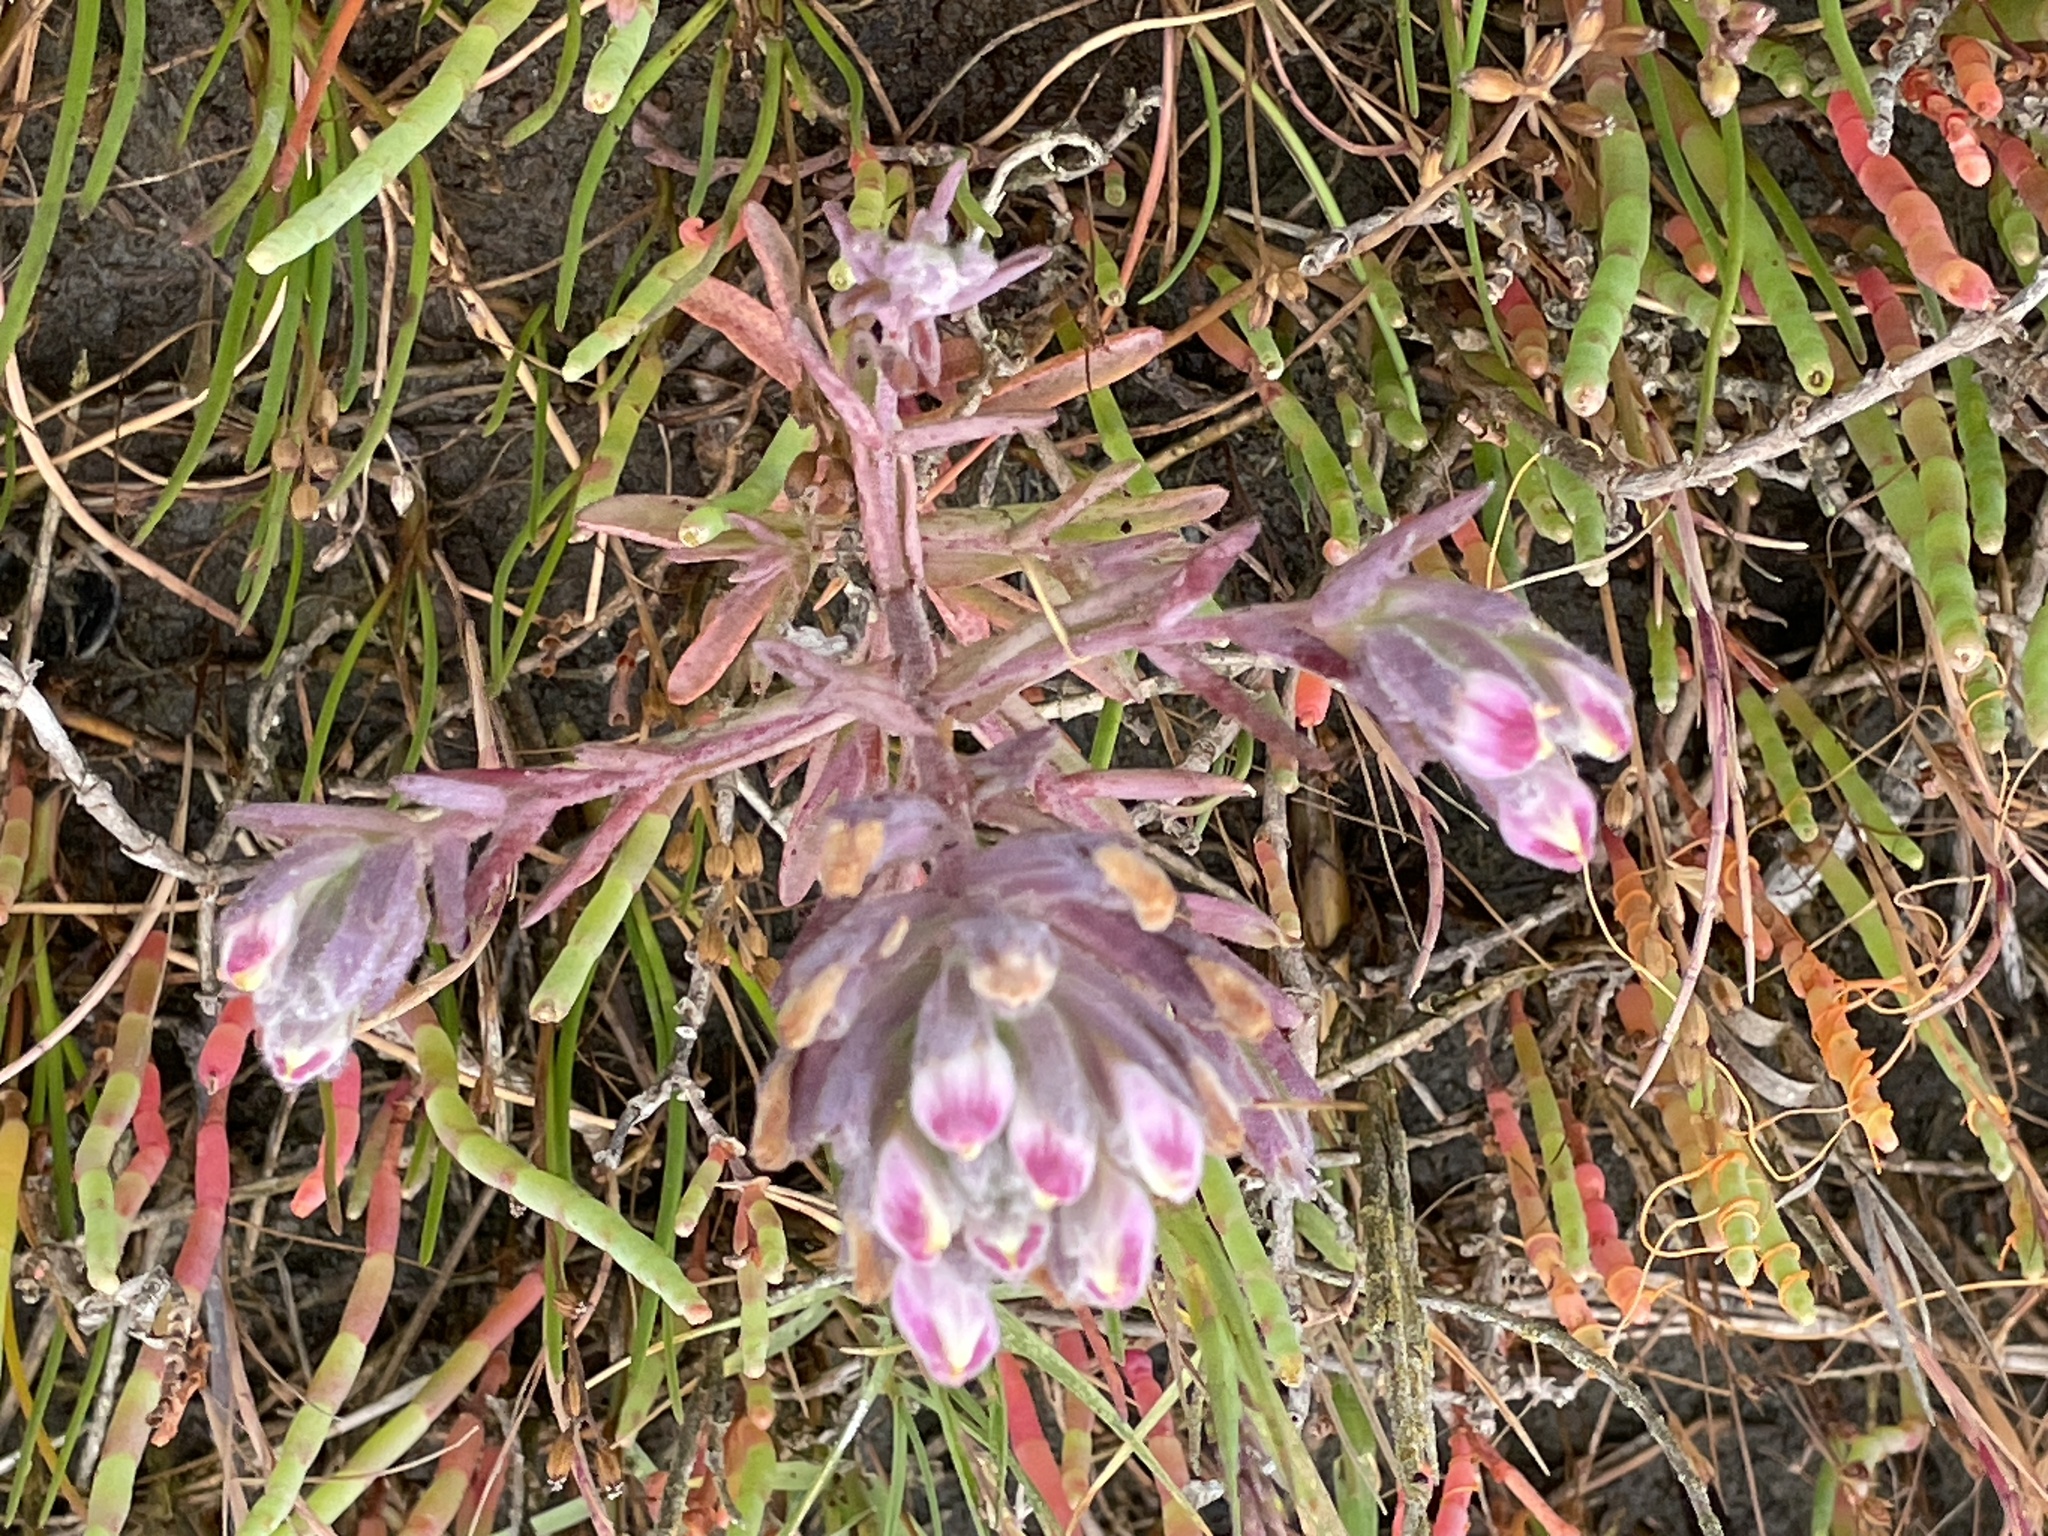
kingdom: Plantae
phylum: Tracheophyta
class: Magnoliopsida
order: Lamiales
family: Orobanchaceae
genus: Chloropyron
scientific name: Chloropyron maritimum
